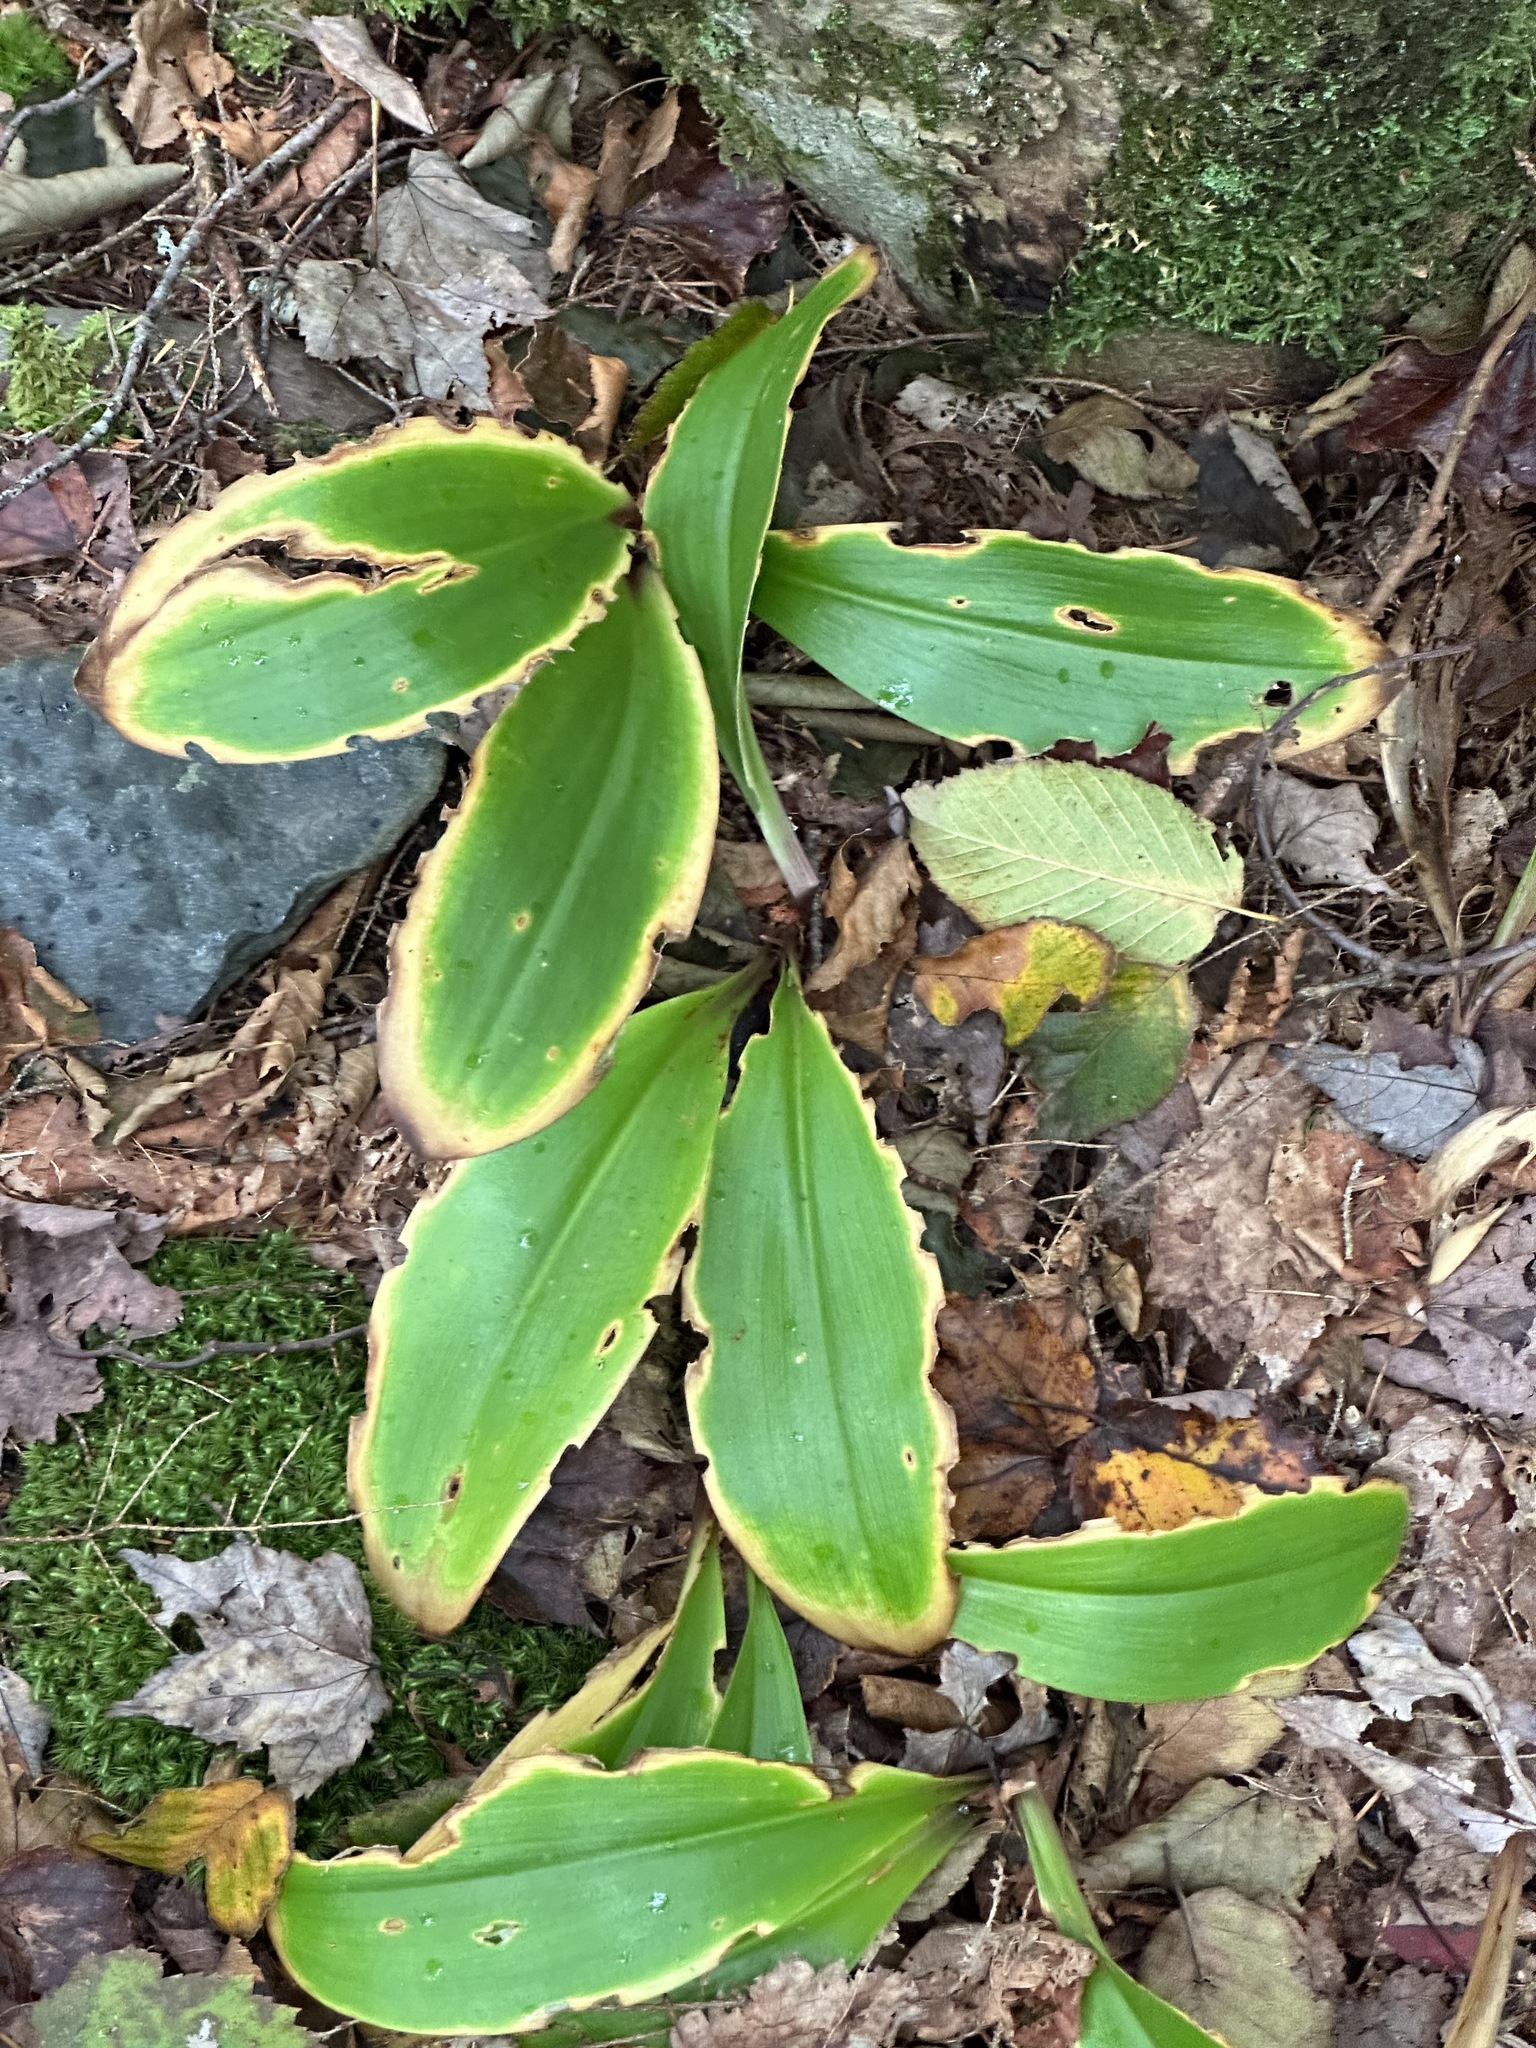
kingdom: Plantae
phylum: Tracheophyta
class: Liliopsida
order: Liliales
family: Liliaceae
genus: Clintonia
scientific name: Clintonia borealis
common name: Yellow clintonia
